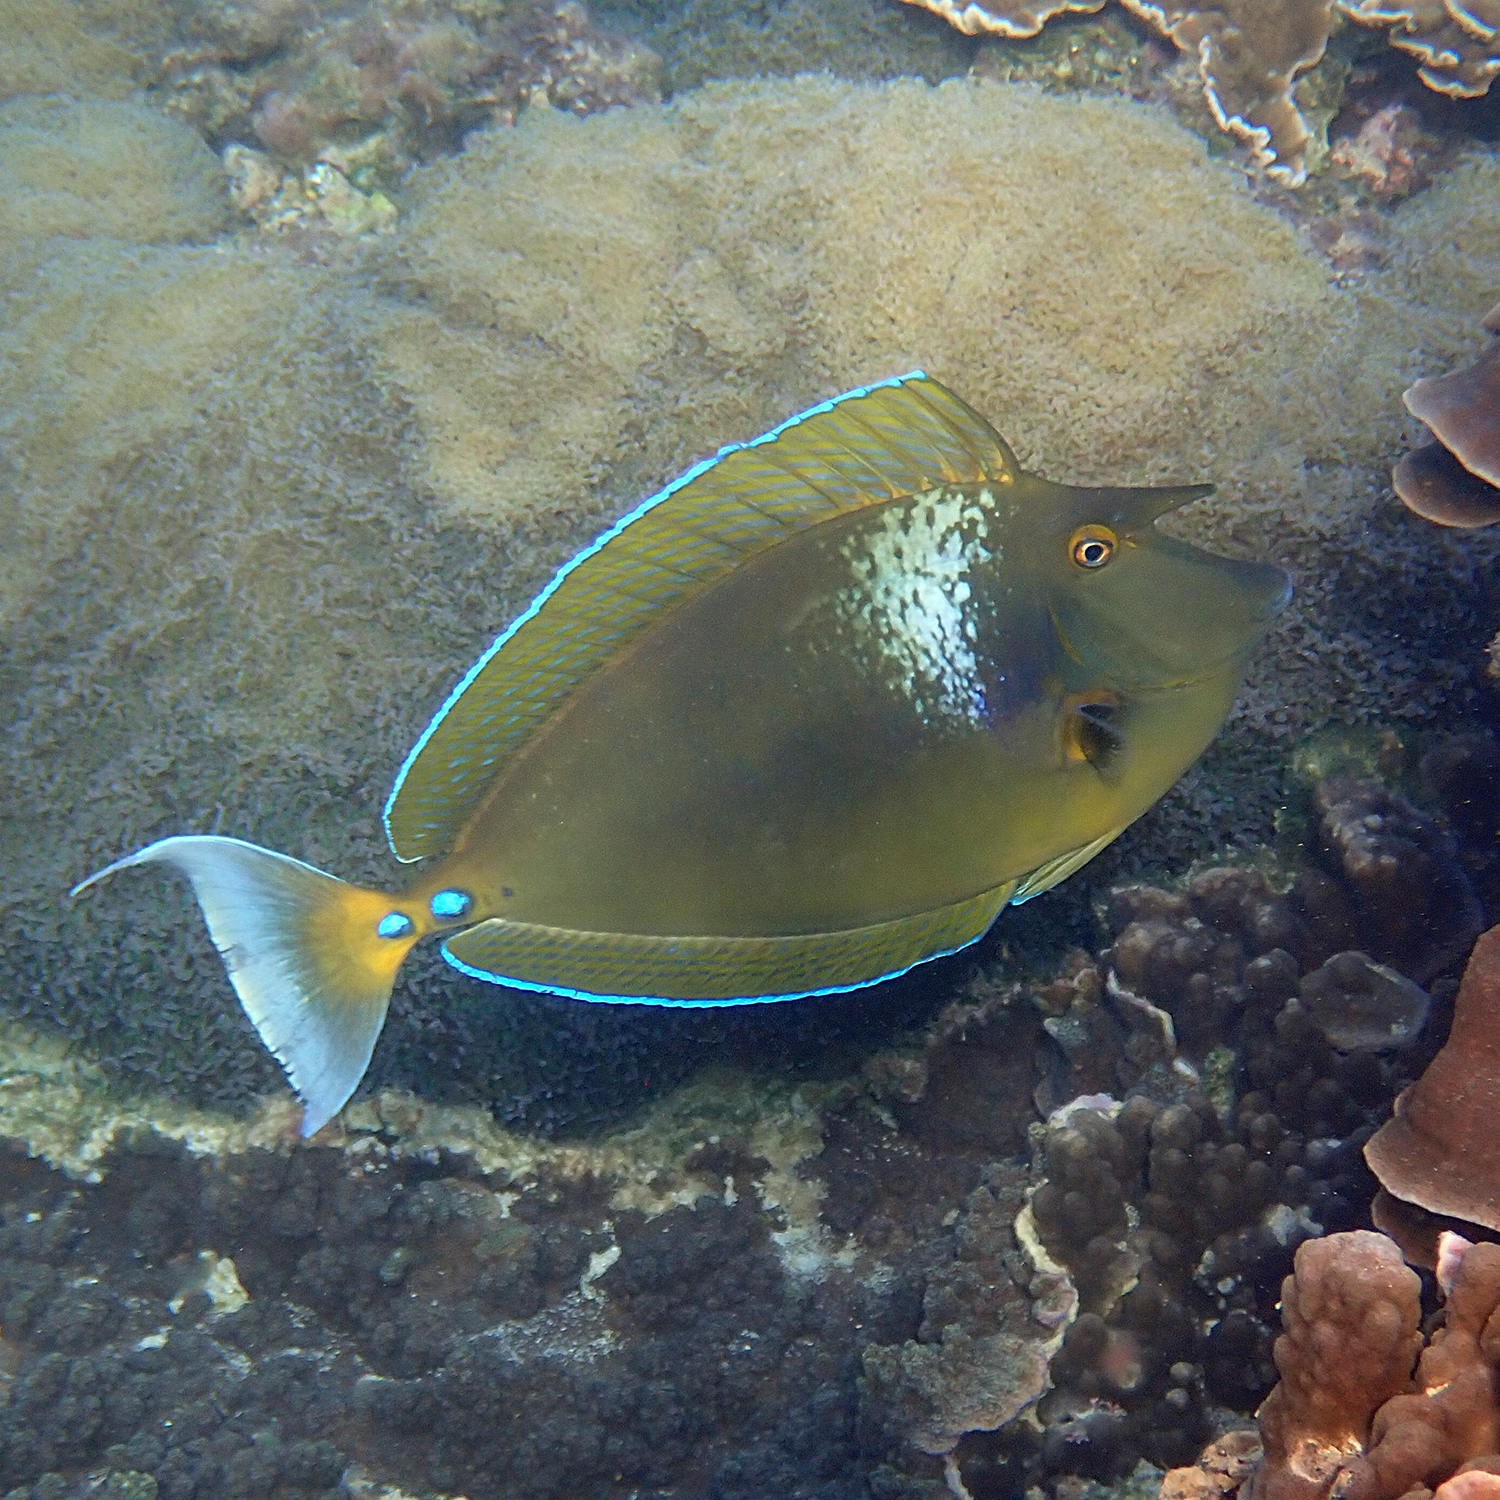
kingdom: Animalia
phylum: Chordata
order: Perciformes
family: Acanthuridae
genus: Naso
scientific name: Naso unicornis
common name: Bluespine unicornfish
